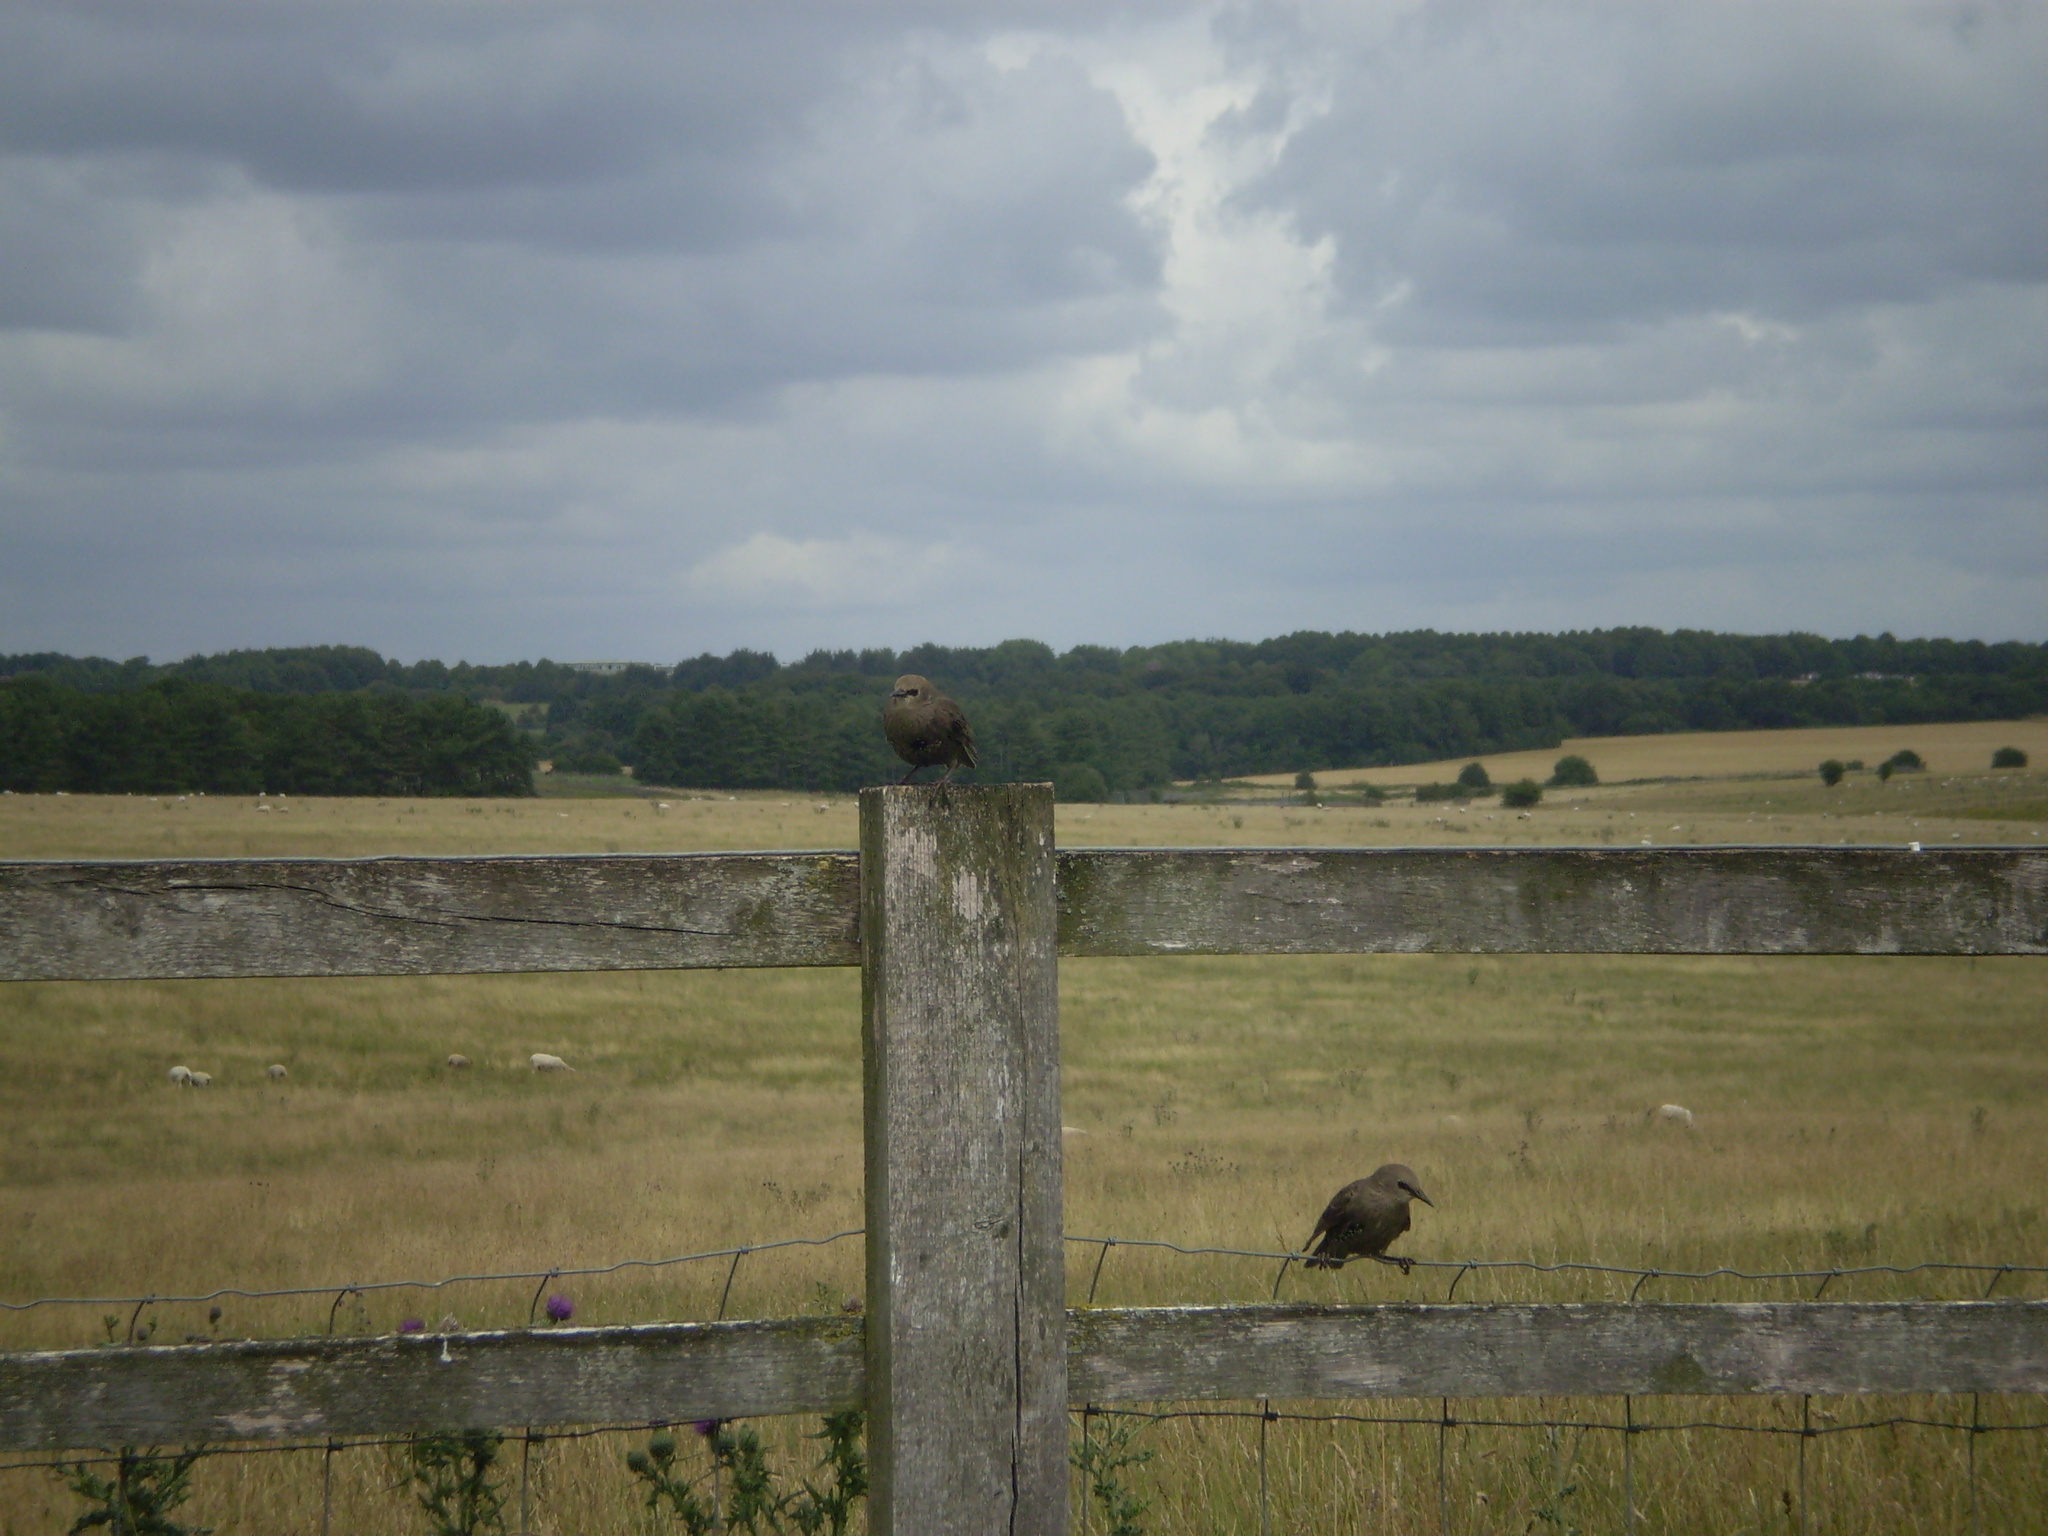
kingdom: Animalia
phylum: Chordata
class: Aves
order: Passeriformes
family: Sturnidae
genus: Sturnus
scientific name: Sturnus vulgaris
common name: Common starling
